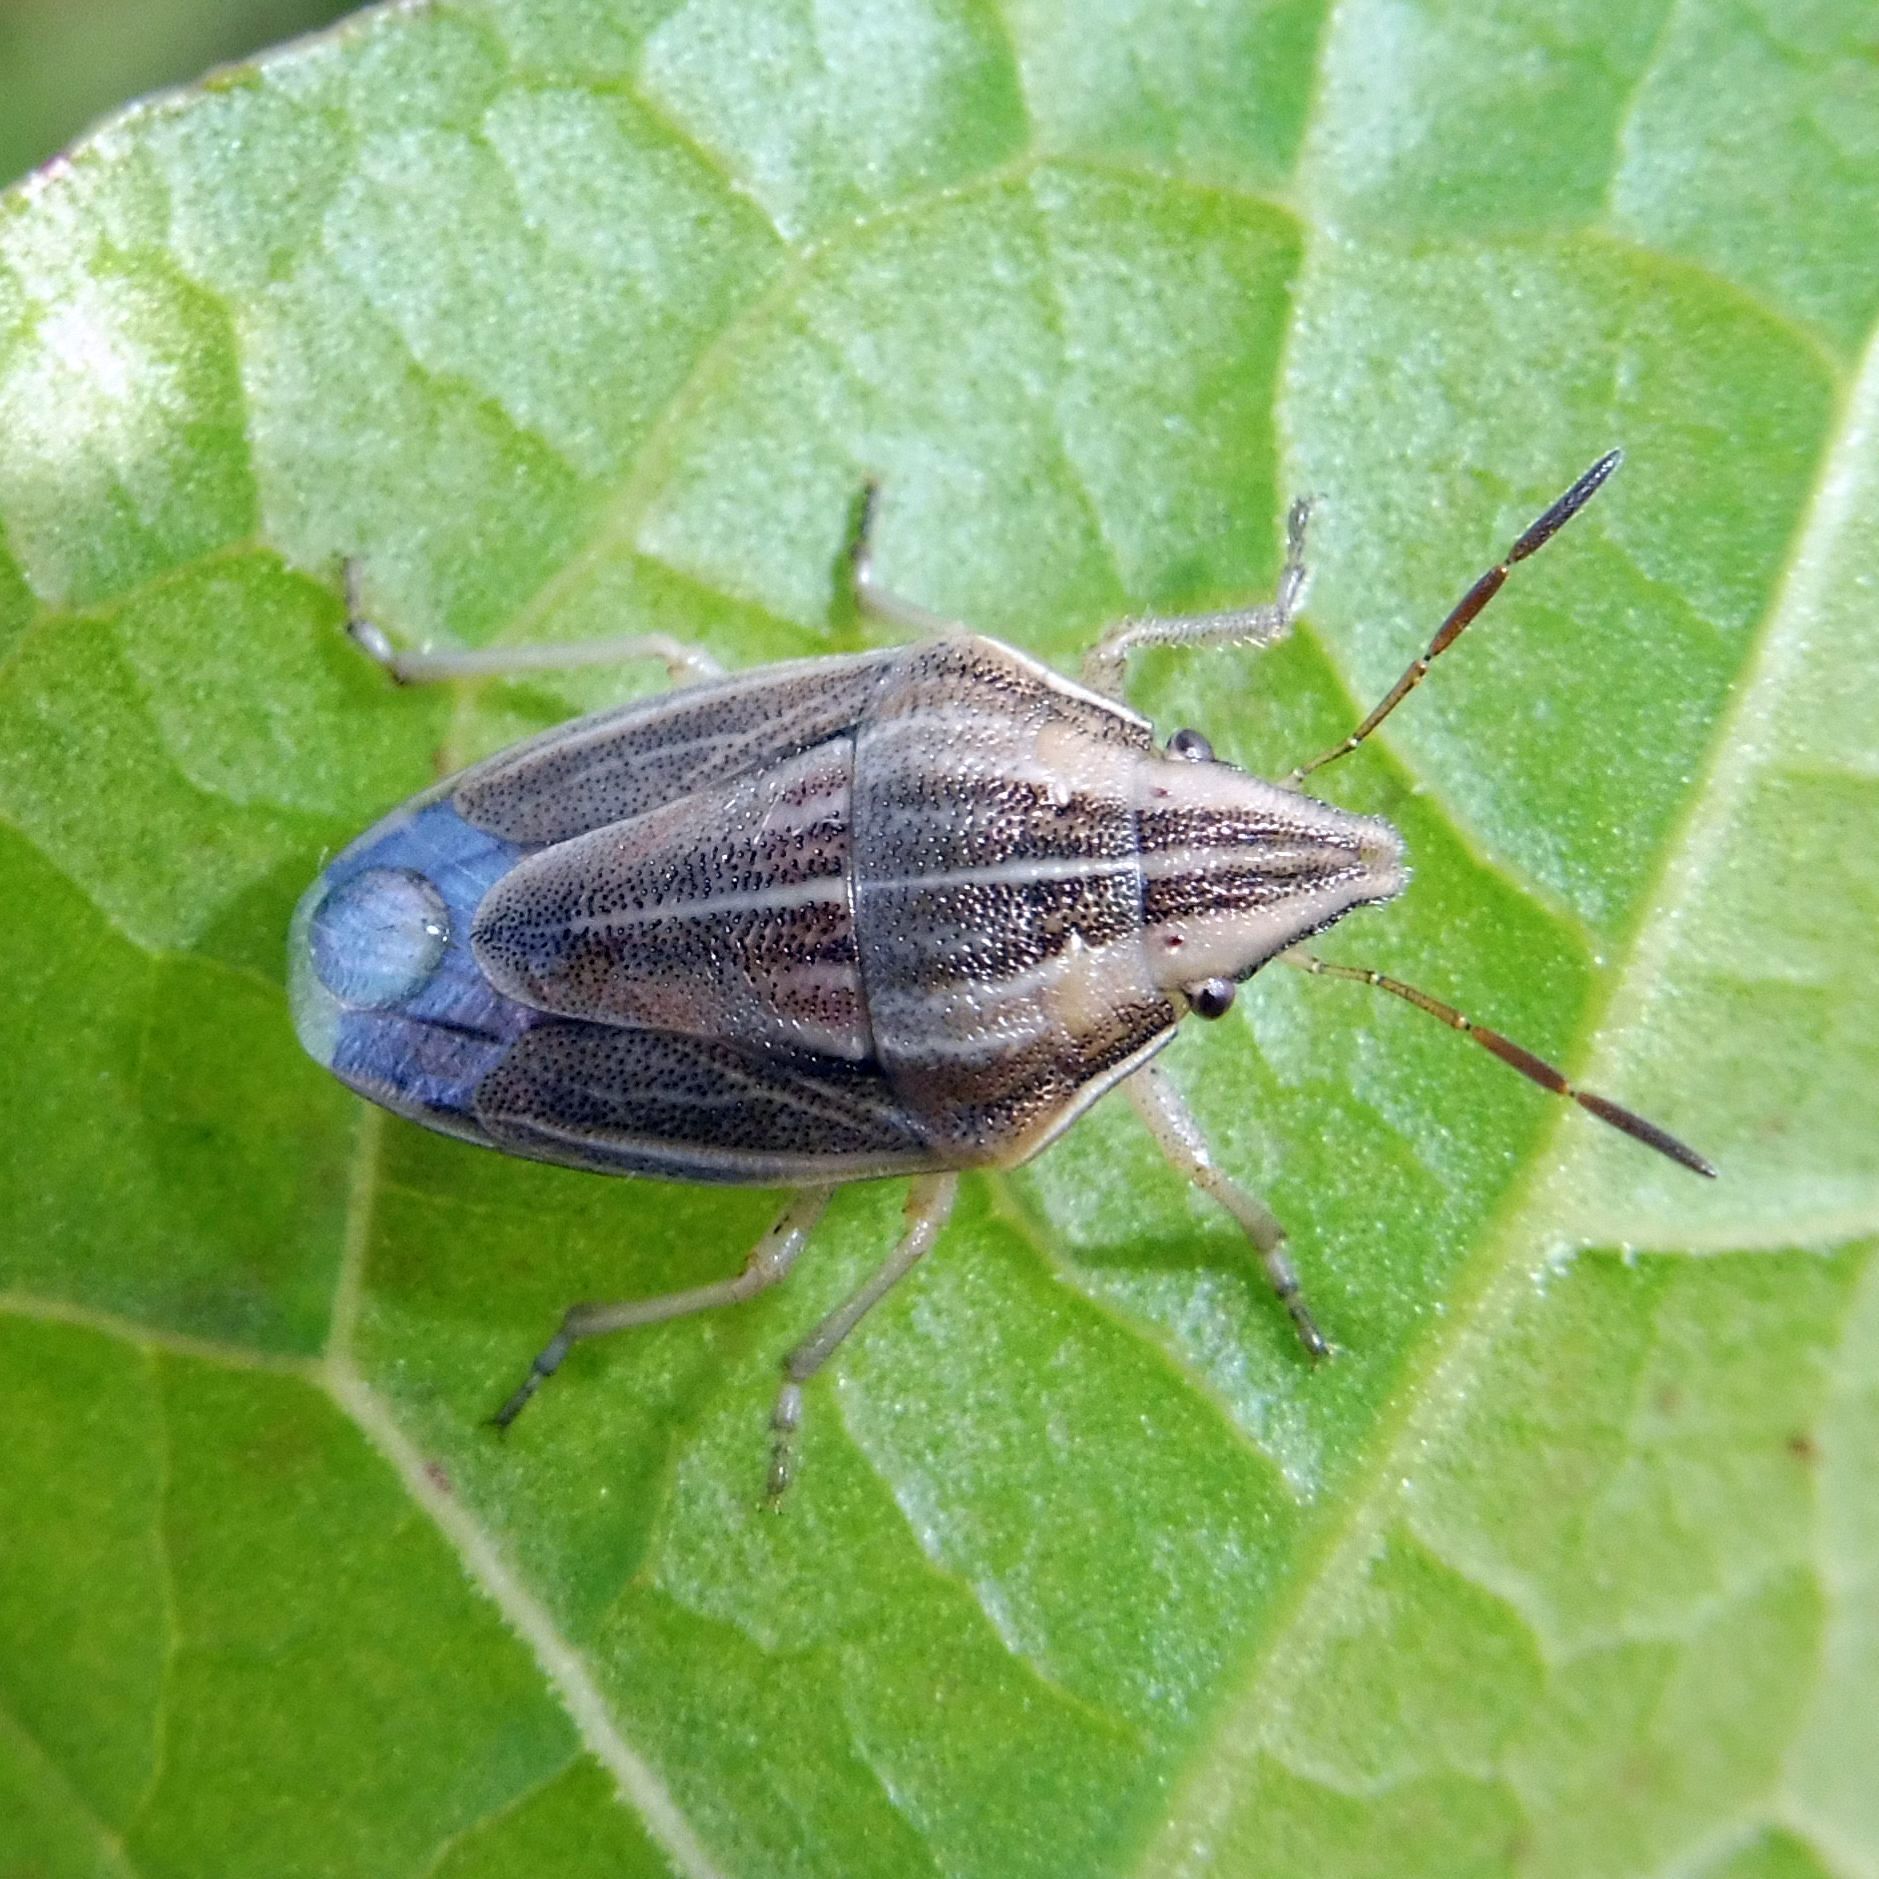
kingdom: Animalia
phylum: Arthropoda
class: Insecta
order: Hemiptera
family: Pentatomidae
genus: Aelia
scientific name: Aelia acuminata
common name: Bishop's mitre
